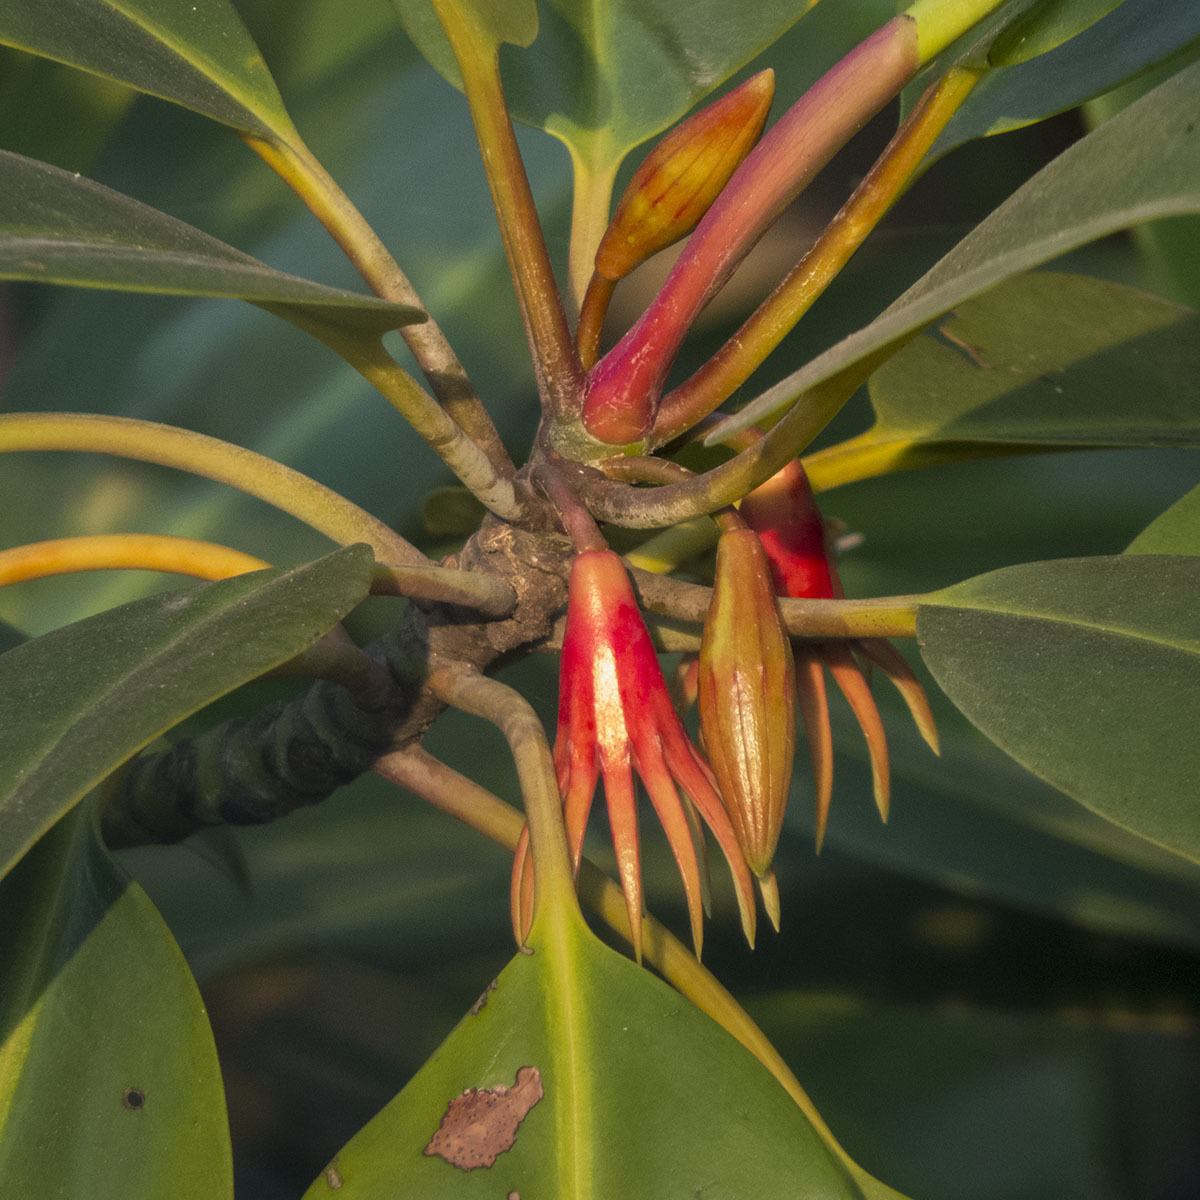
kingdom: Plantae
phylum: Tracheophyta
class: Magnoliopsida
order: Malpighiales
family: Rhizophoraceae
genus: Bruguiera
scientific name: Bruguiera gymnorhiza
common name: Oriental mangrove
